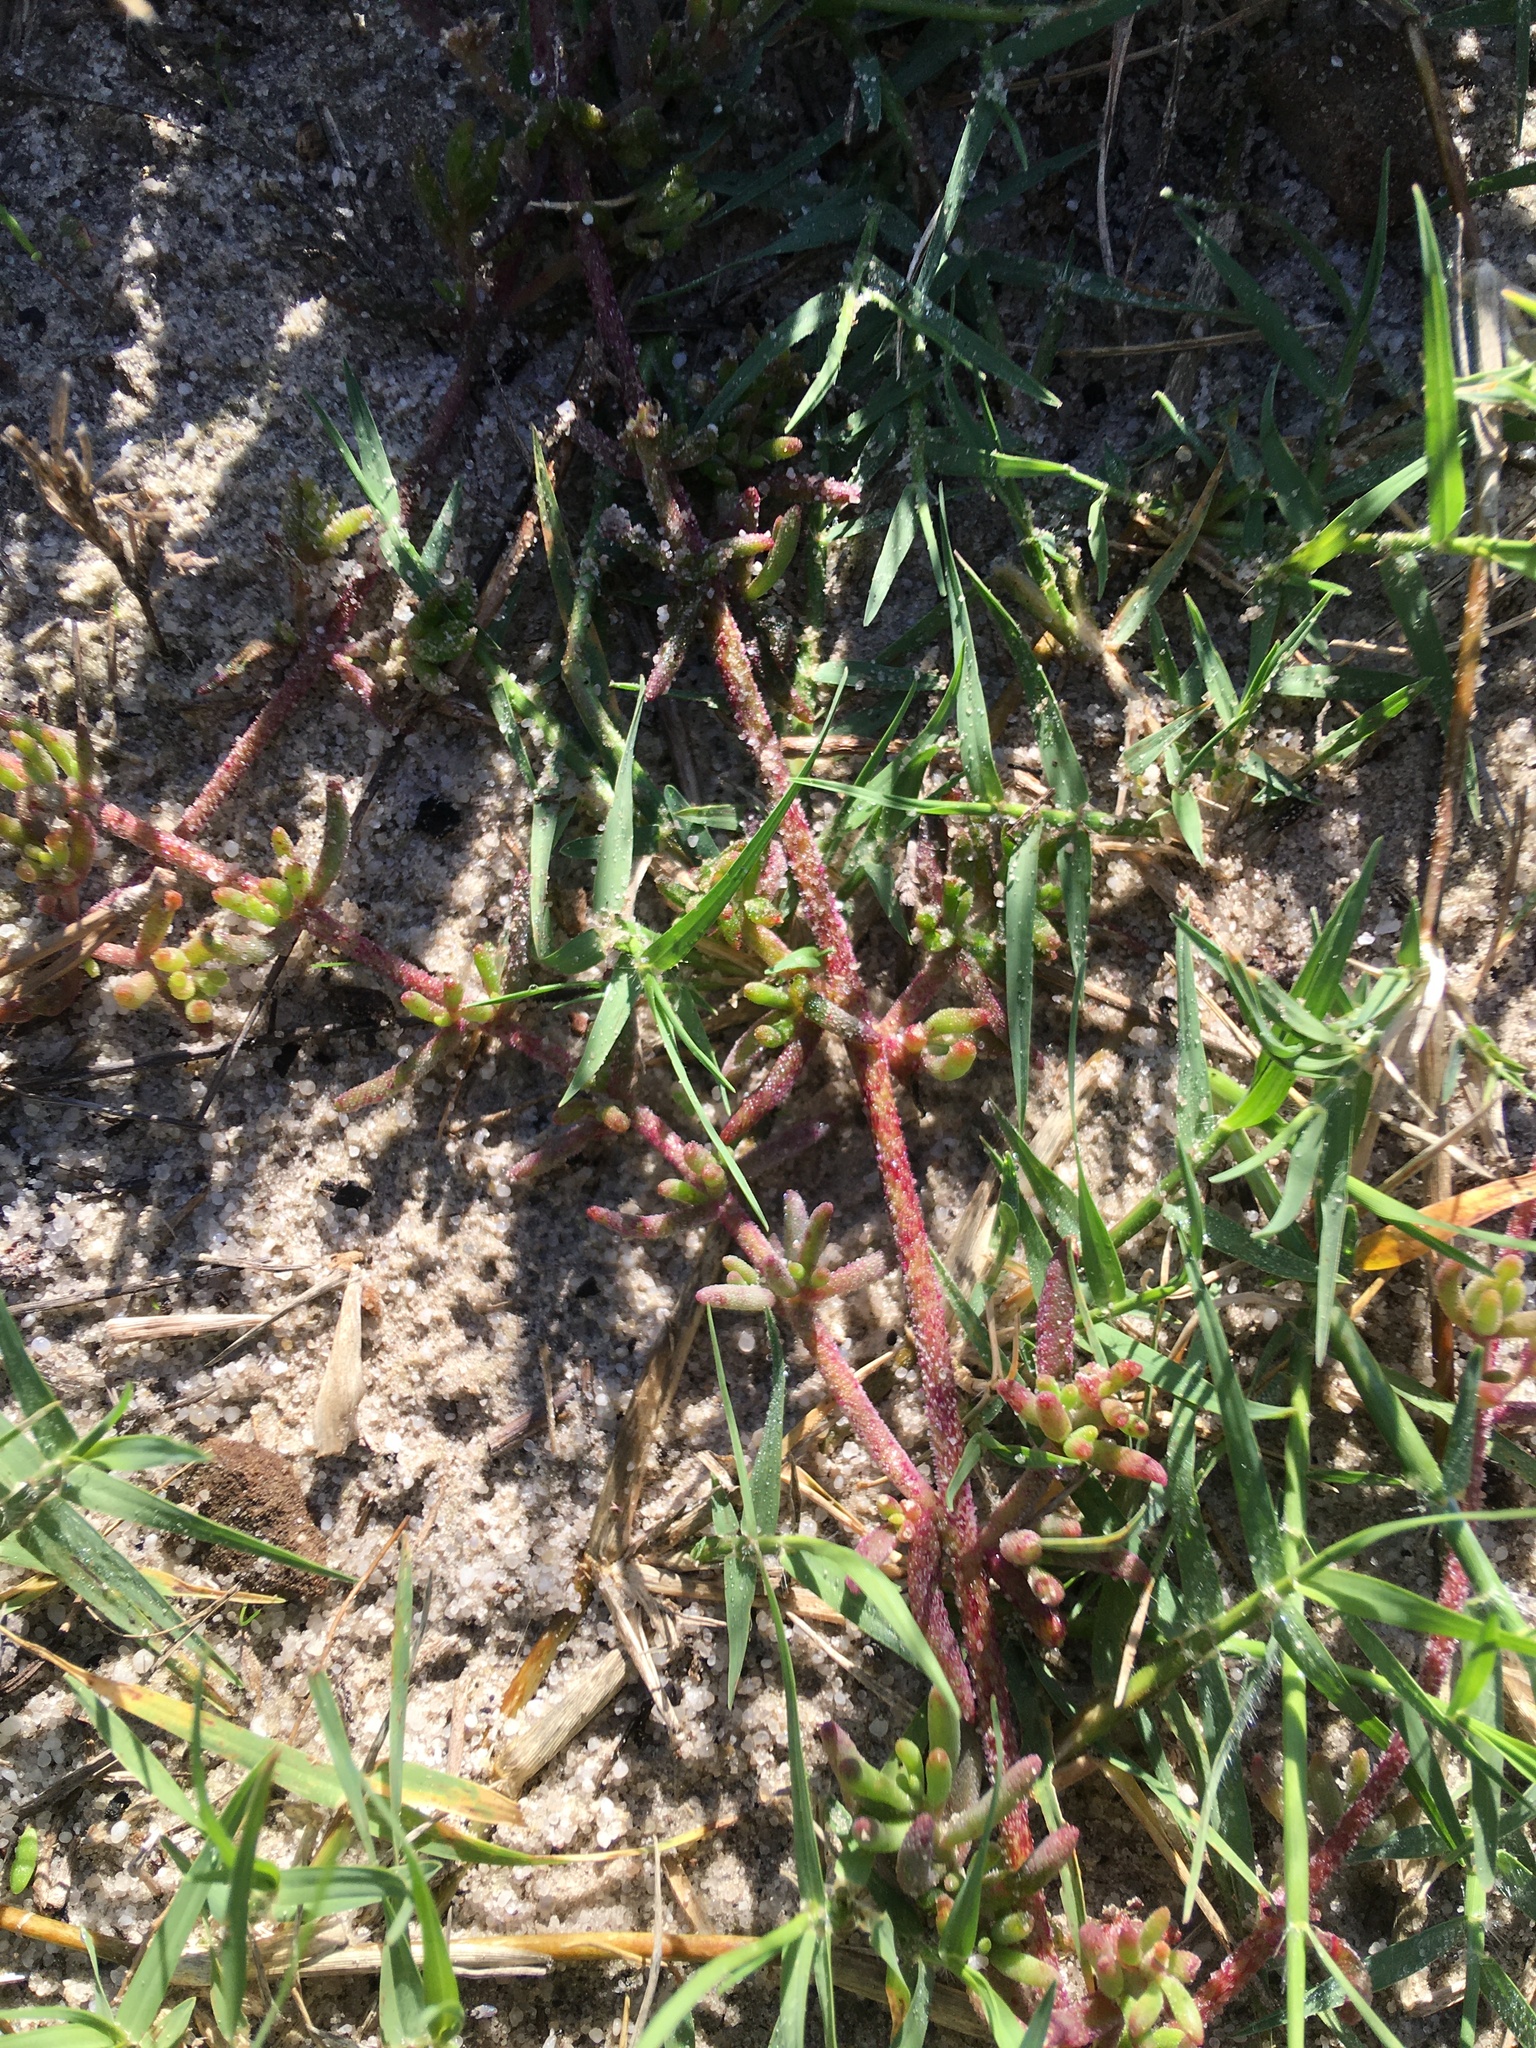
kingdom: Plantae
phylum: Tracheophyta
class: Magnoliopsida
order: Caryophyllales
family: Aizoaceae
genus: Mesembryanthemum
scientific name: Mesembryanthemum canaliculatum
